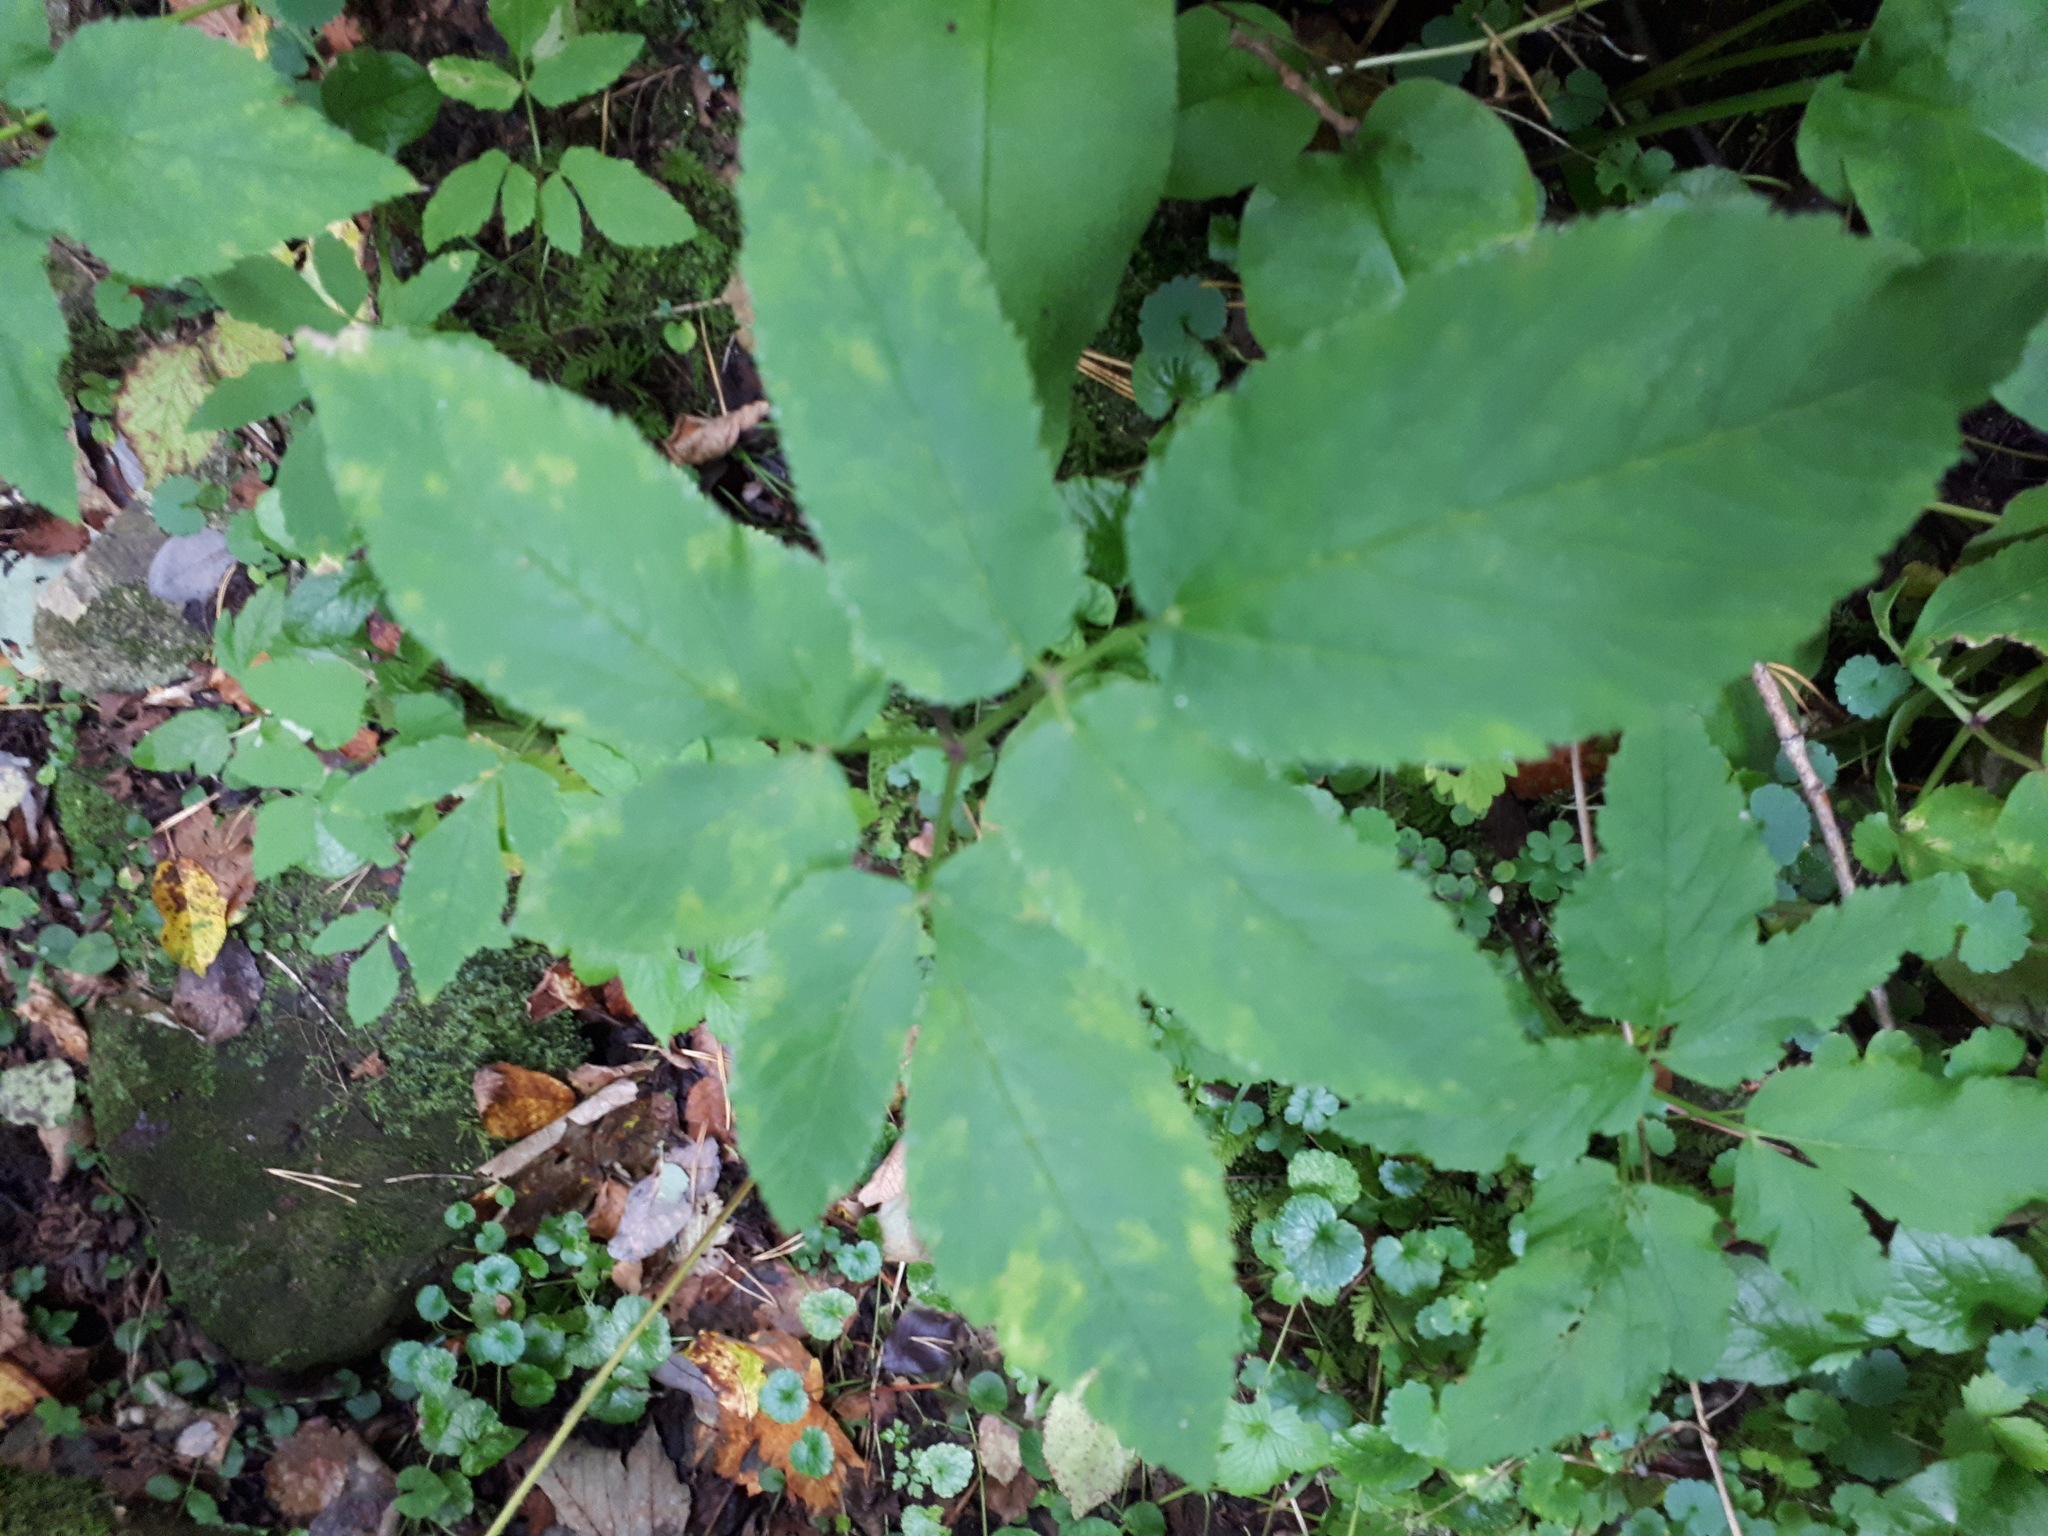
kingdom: Plantae
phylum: Tracheophyta
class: Magnoliopsida
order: Apiales
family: Apiaceae
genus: Aegopodium
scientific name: Aegopodium podagraria
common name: Ground-elder
